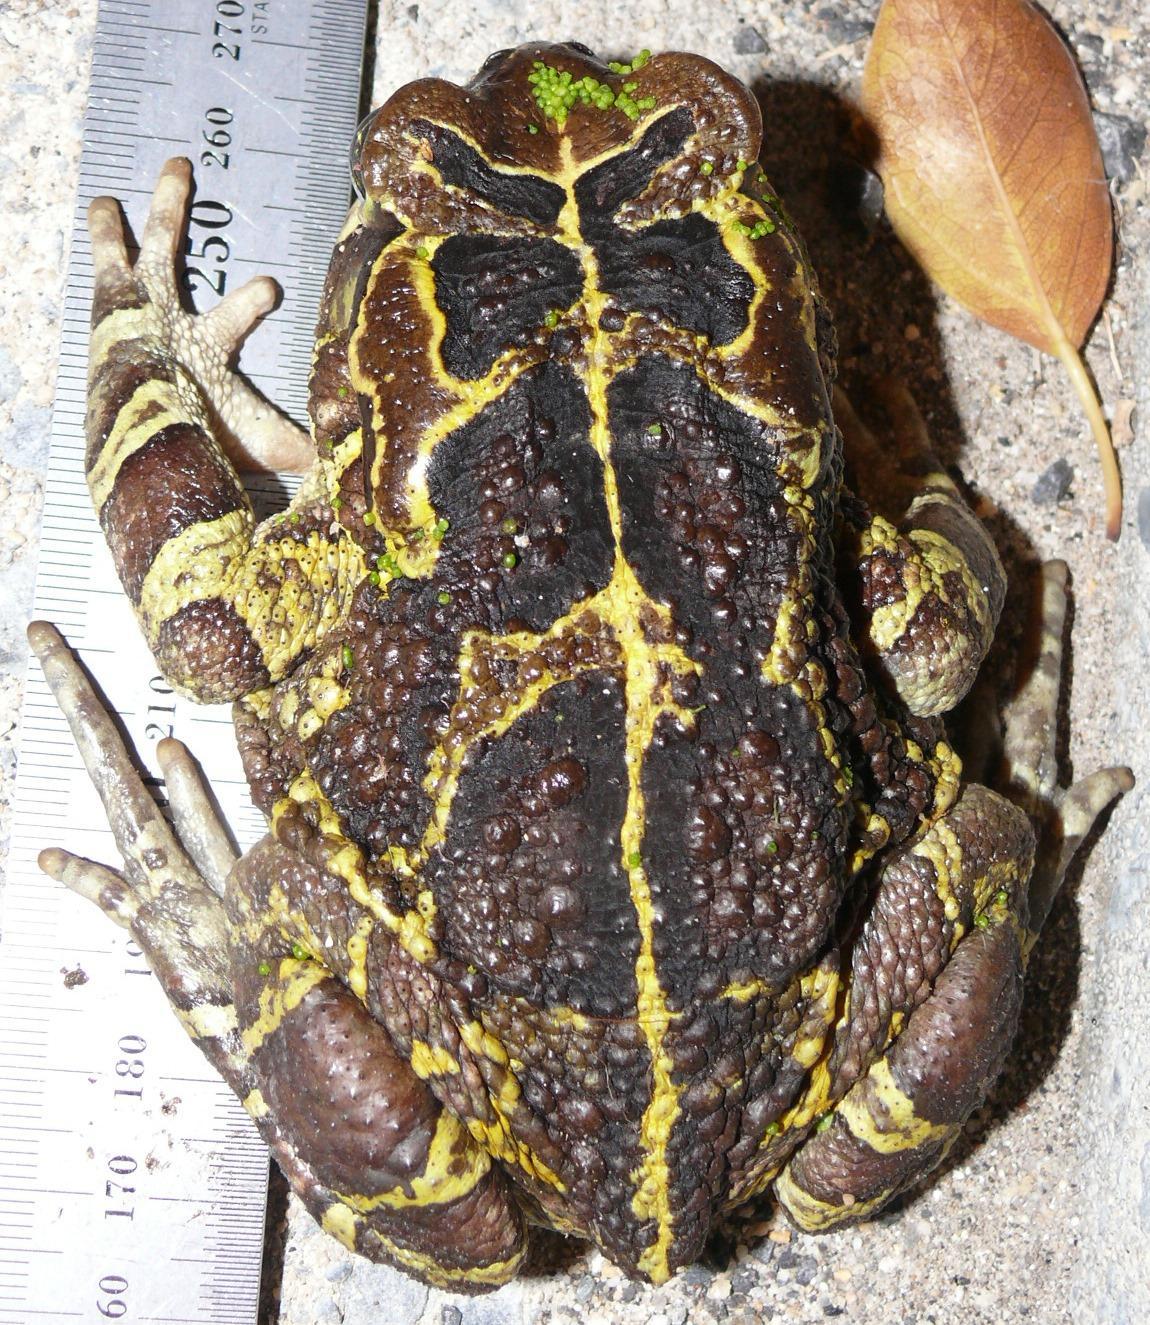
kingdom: Animalia
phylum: Chordata
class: Amphibia
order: Anura
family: Bufonidae
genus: Sclerophrys
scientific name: Sclerophrys pantherina
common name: Panther toad
